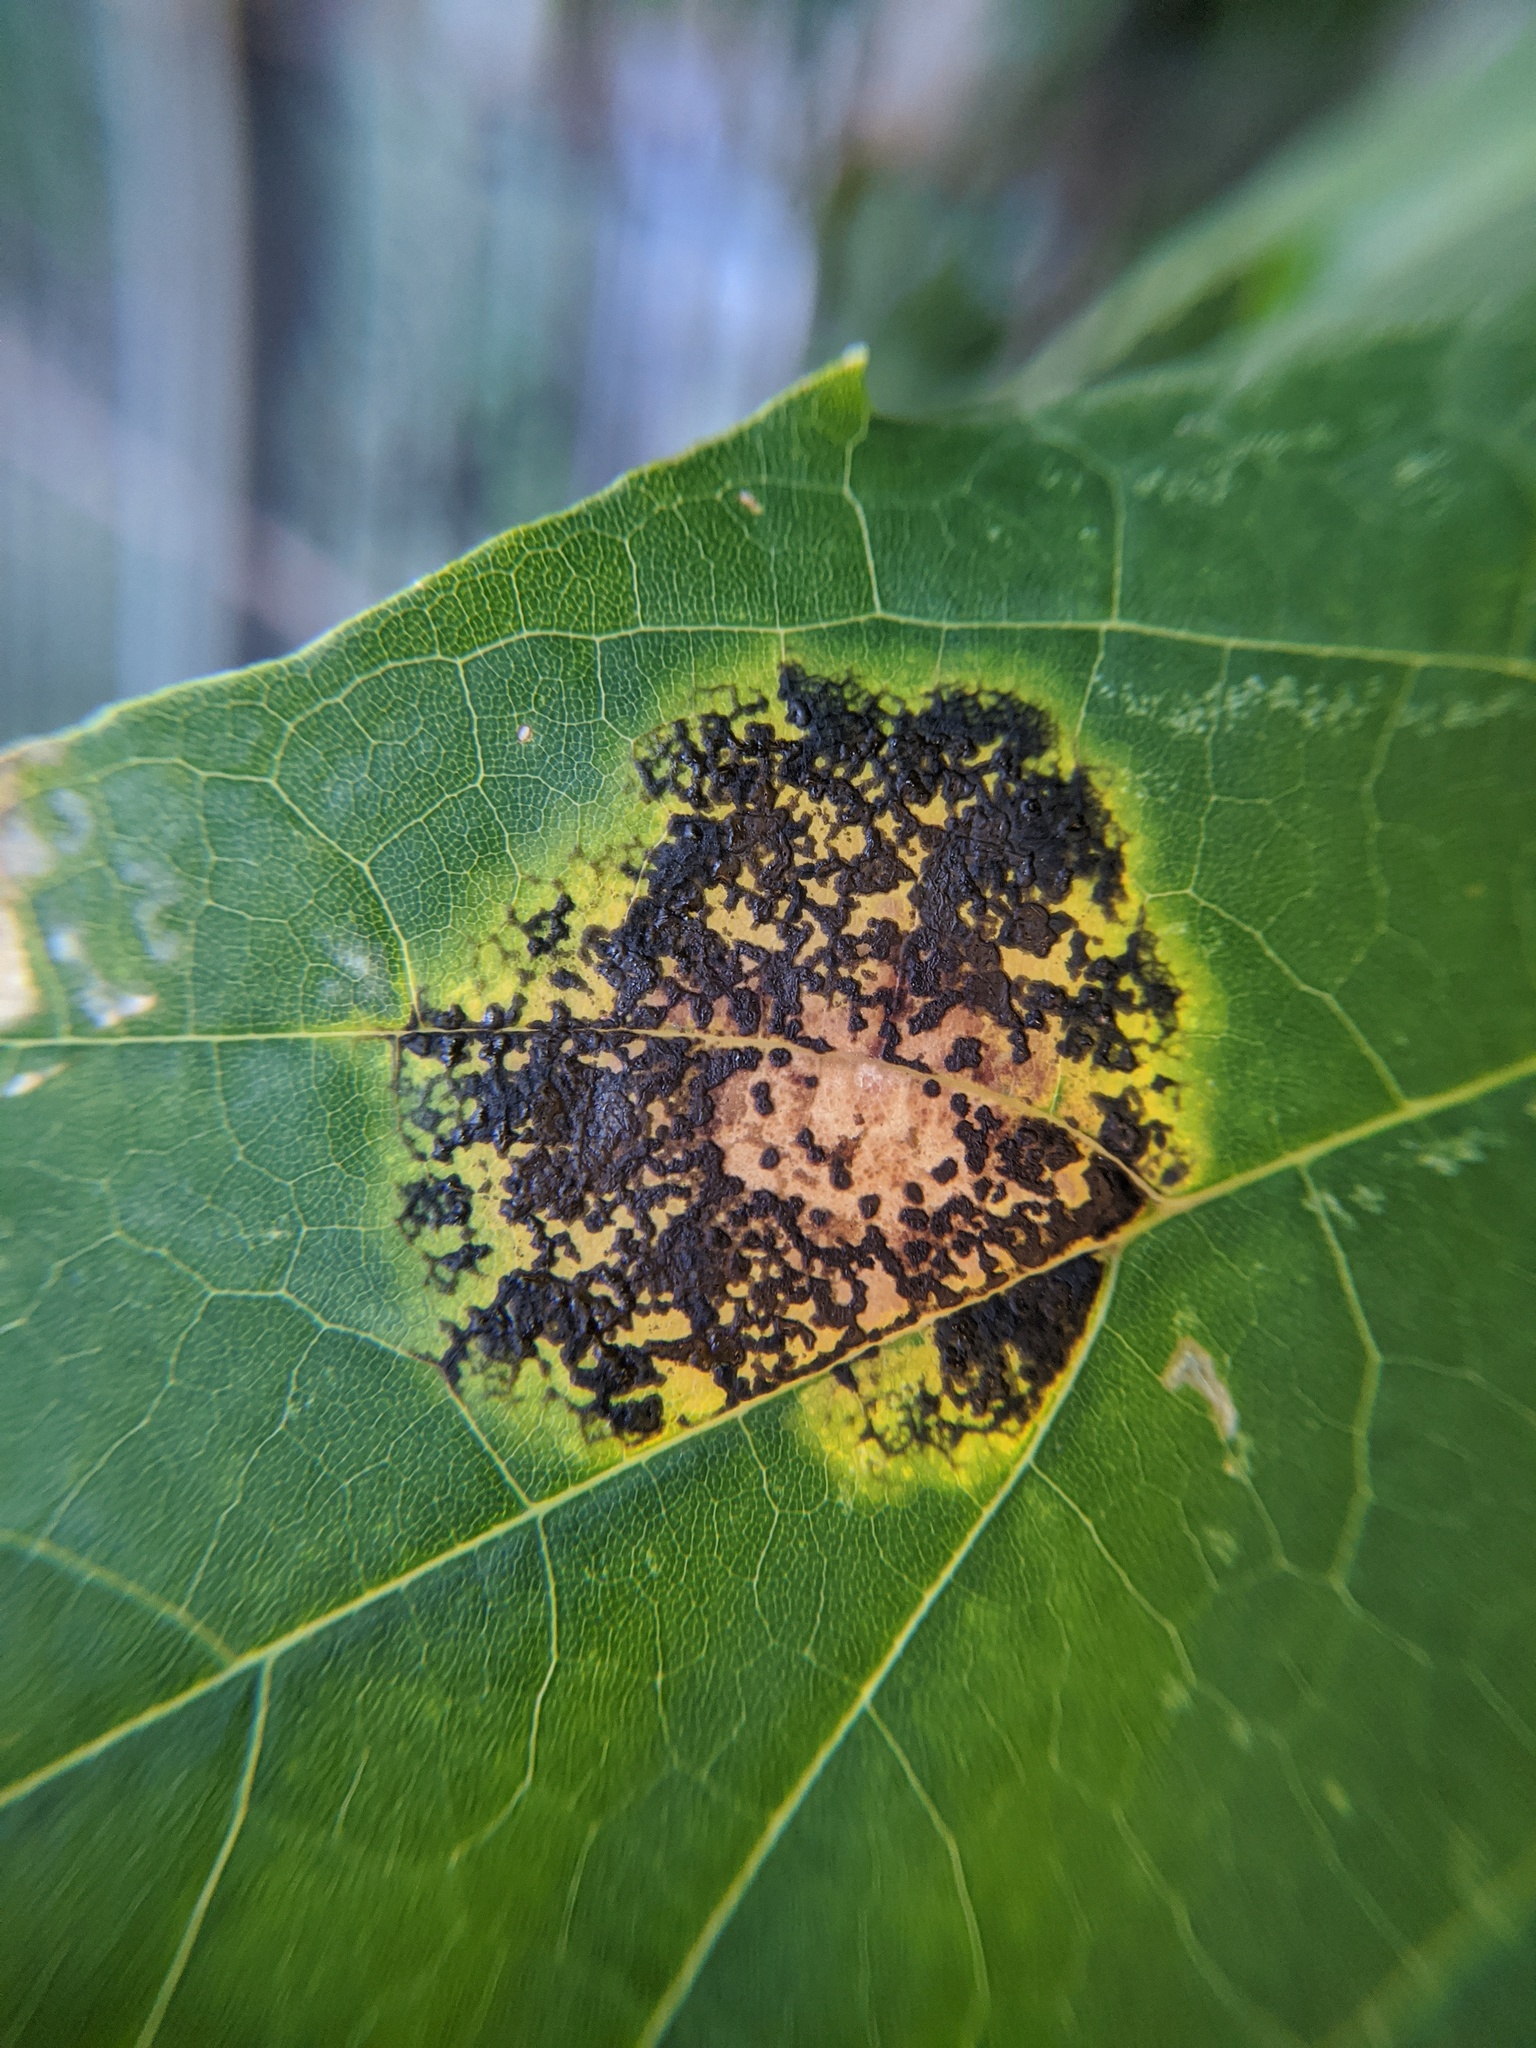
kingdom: Fungi
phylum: Ascomycota
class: Leotiomycetes
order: Rhytismatales
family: Rhytismataceae
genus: Rhytisma
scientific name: Rhytisma acerinum
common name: European tar spot
